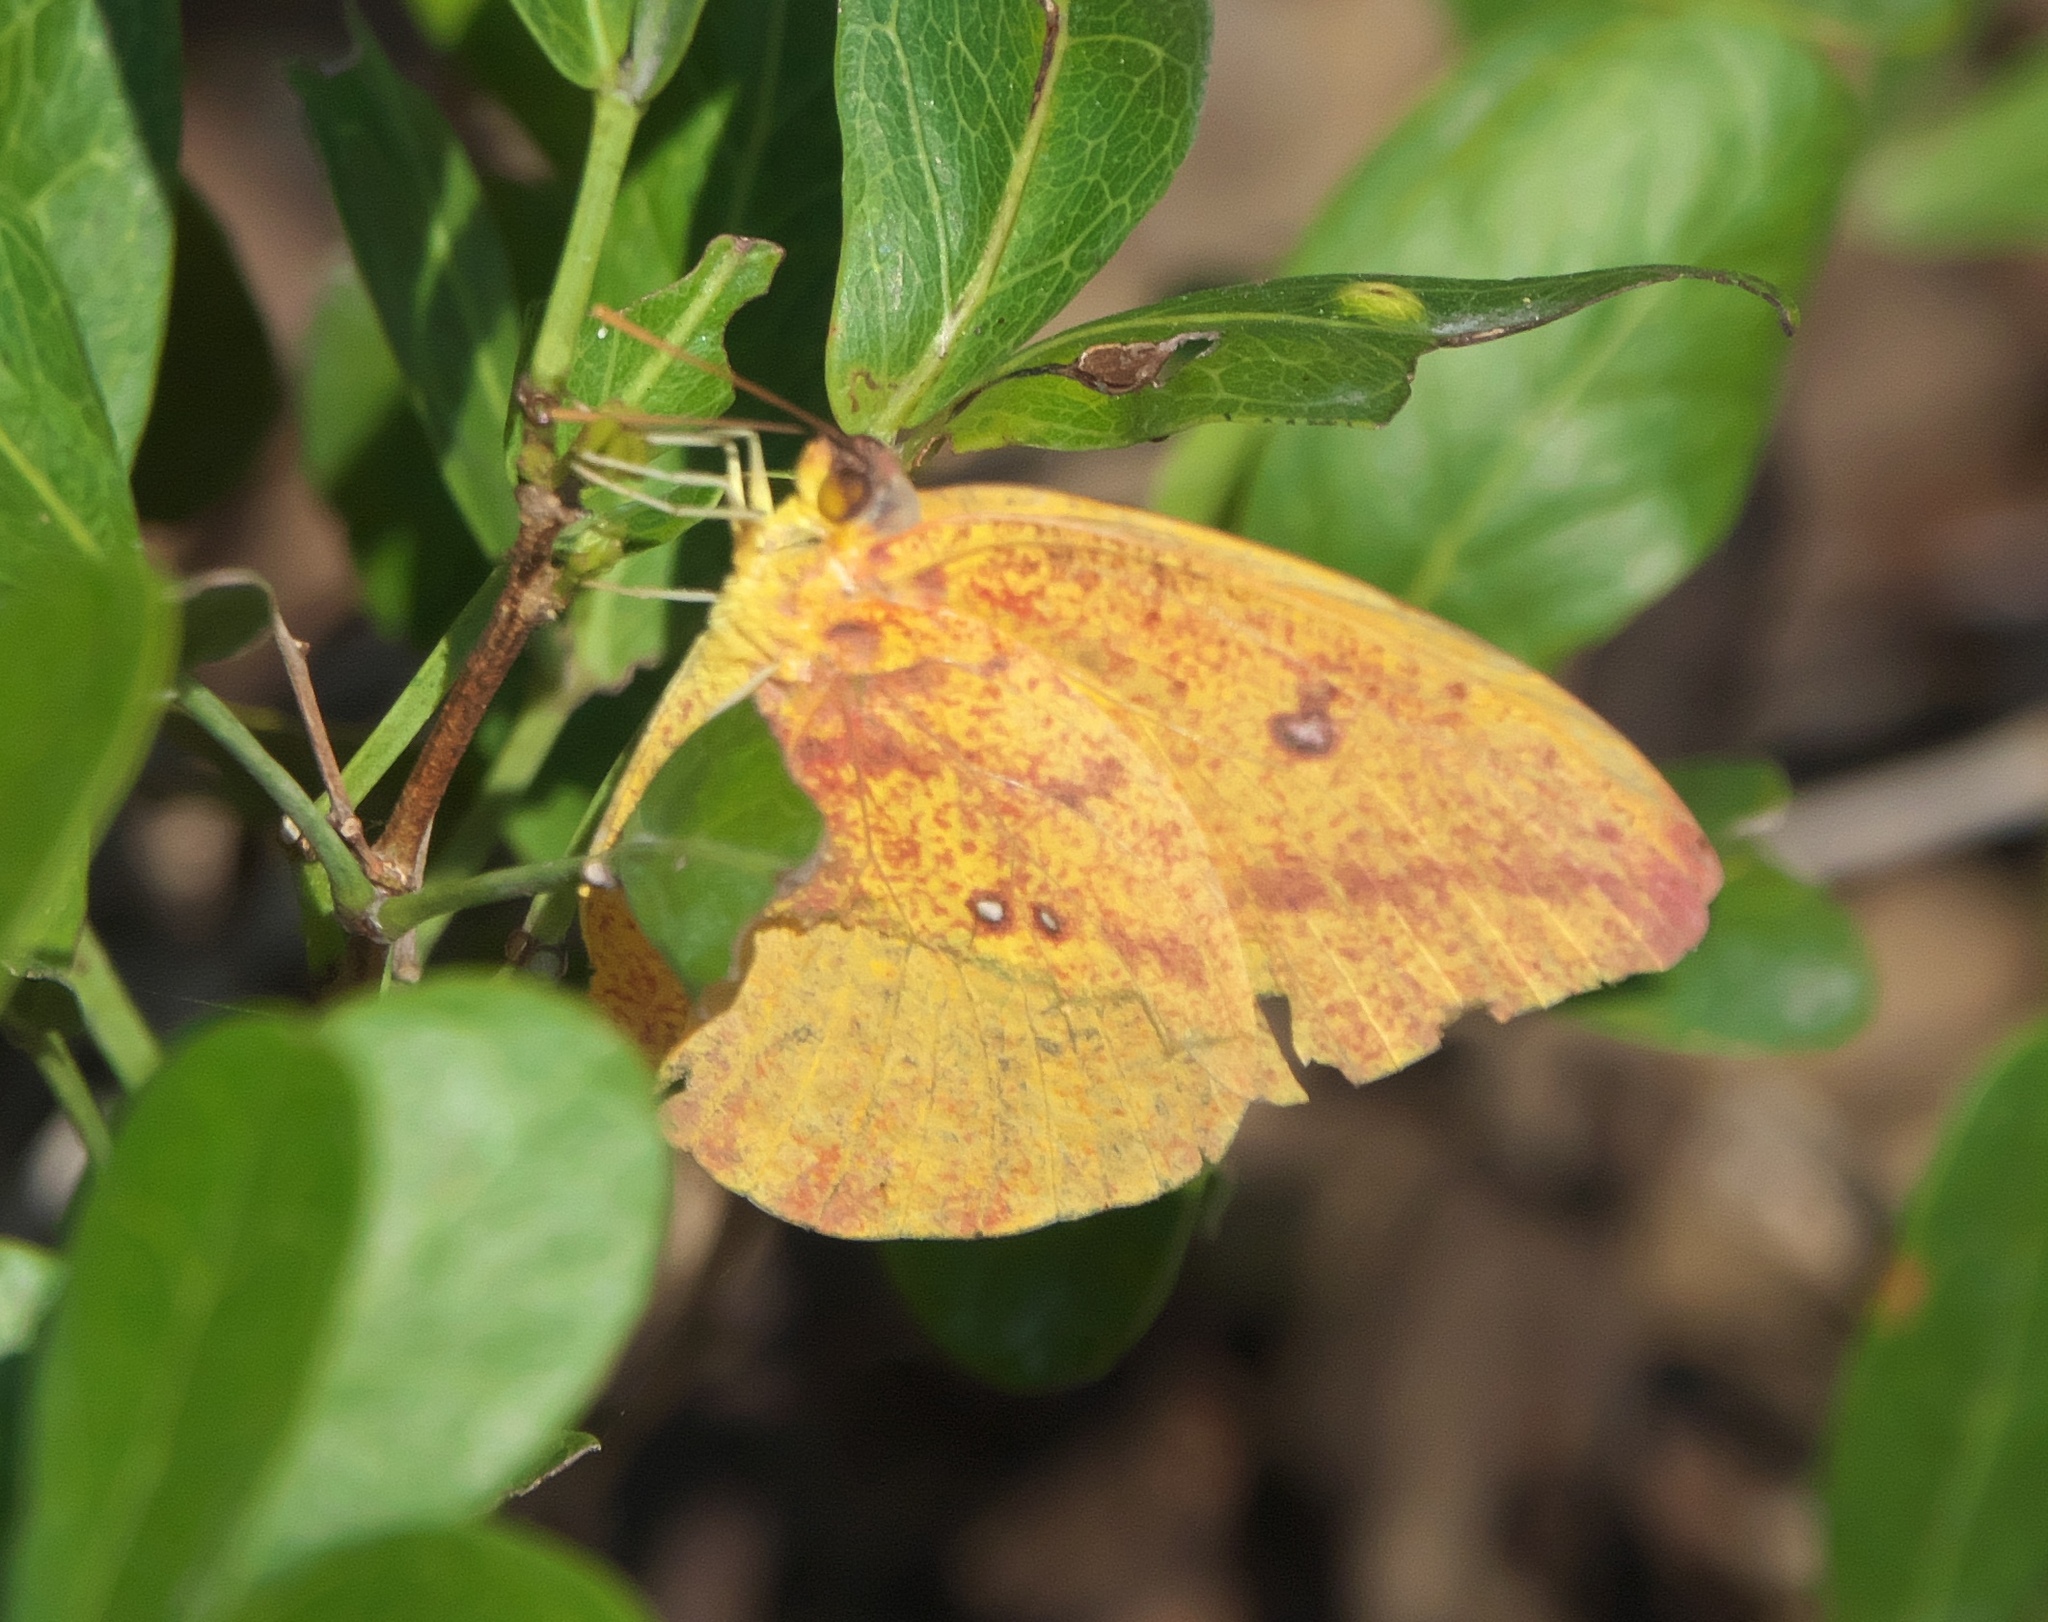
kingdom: Animalia
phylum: Arthropoda
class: Insecta
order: Lepidoptera
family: Pieridae
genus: Phoebis
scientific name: Phoebis agarithe
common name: Large orange sulphur
